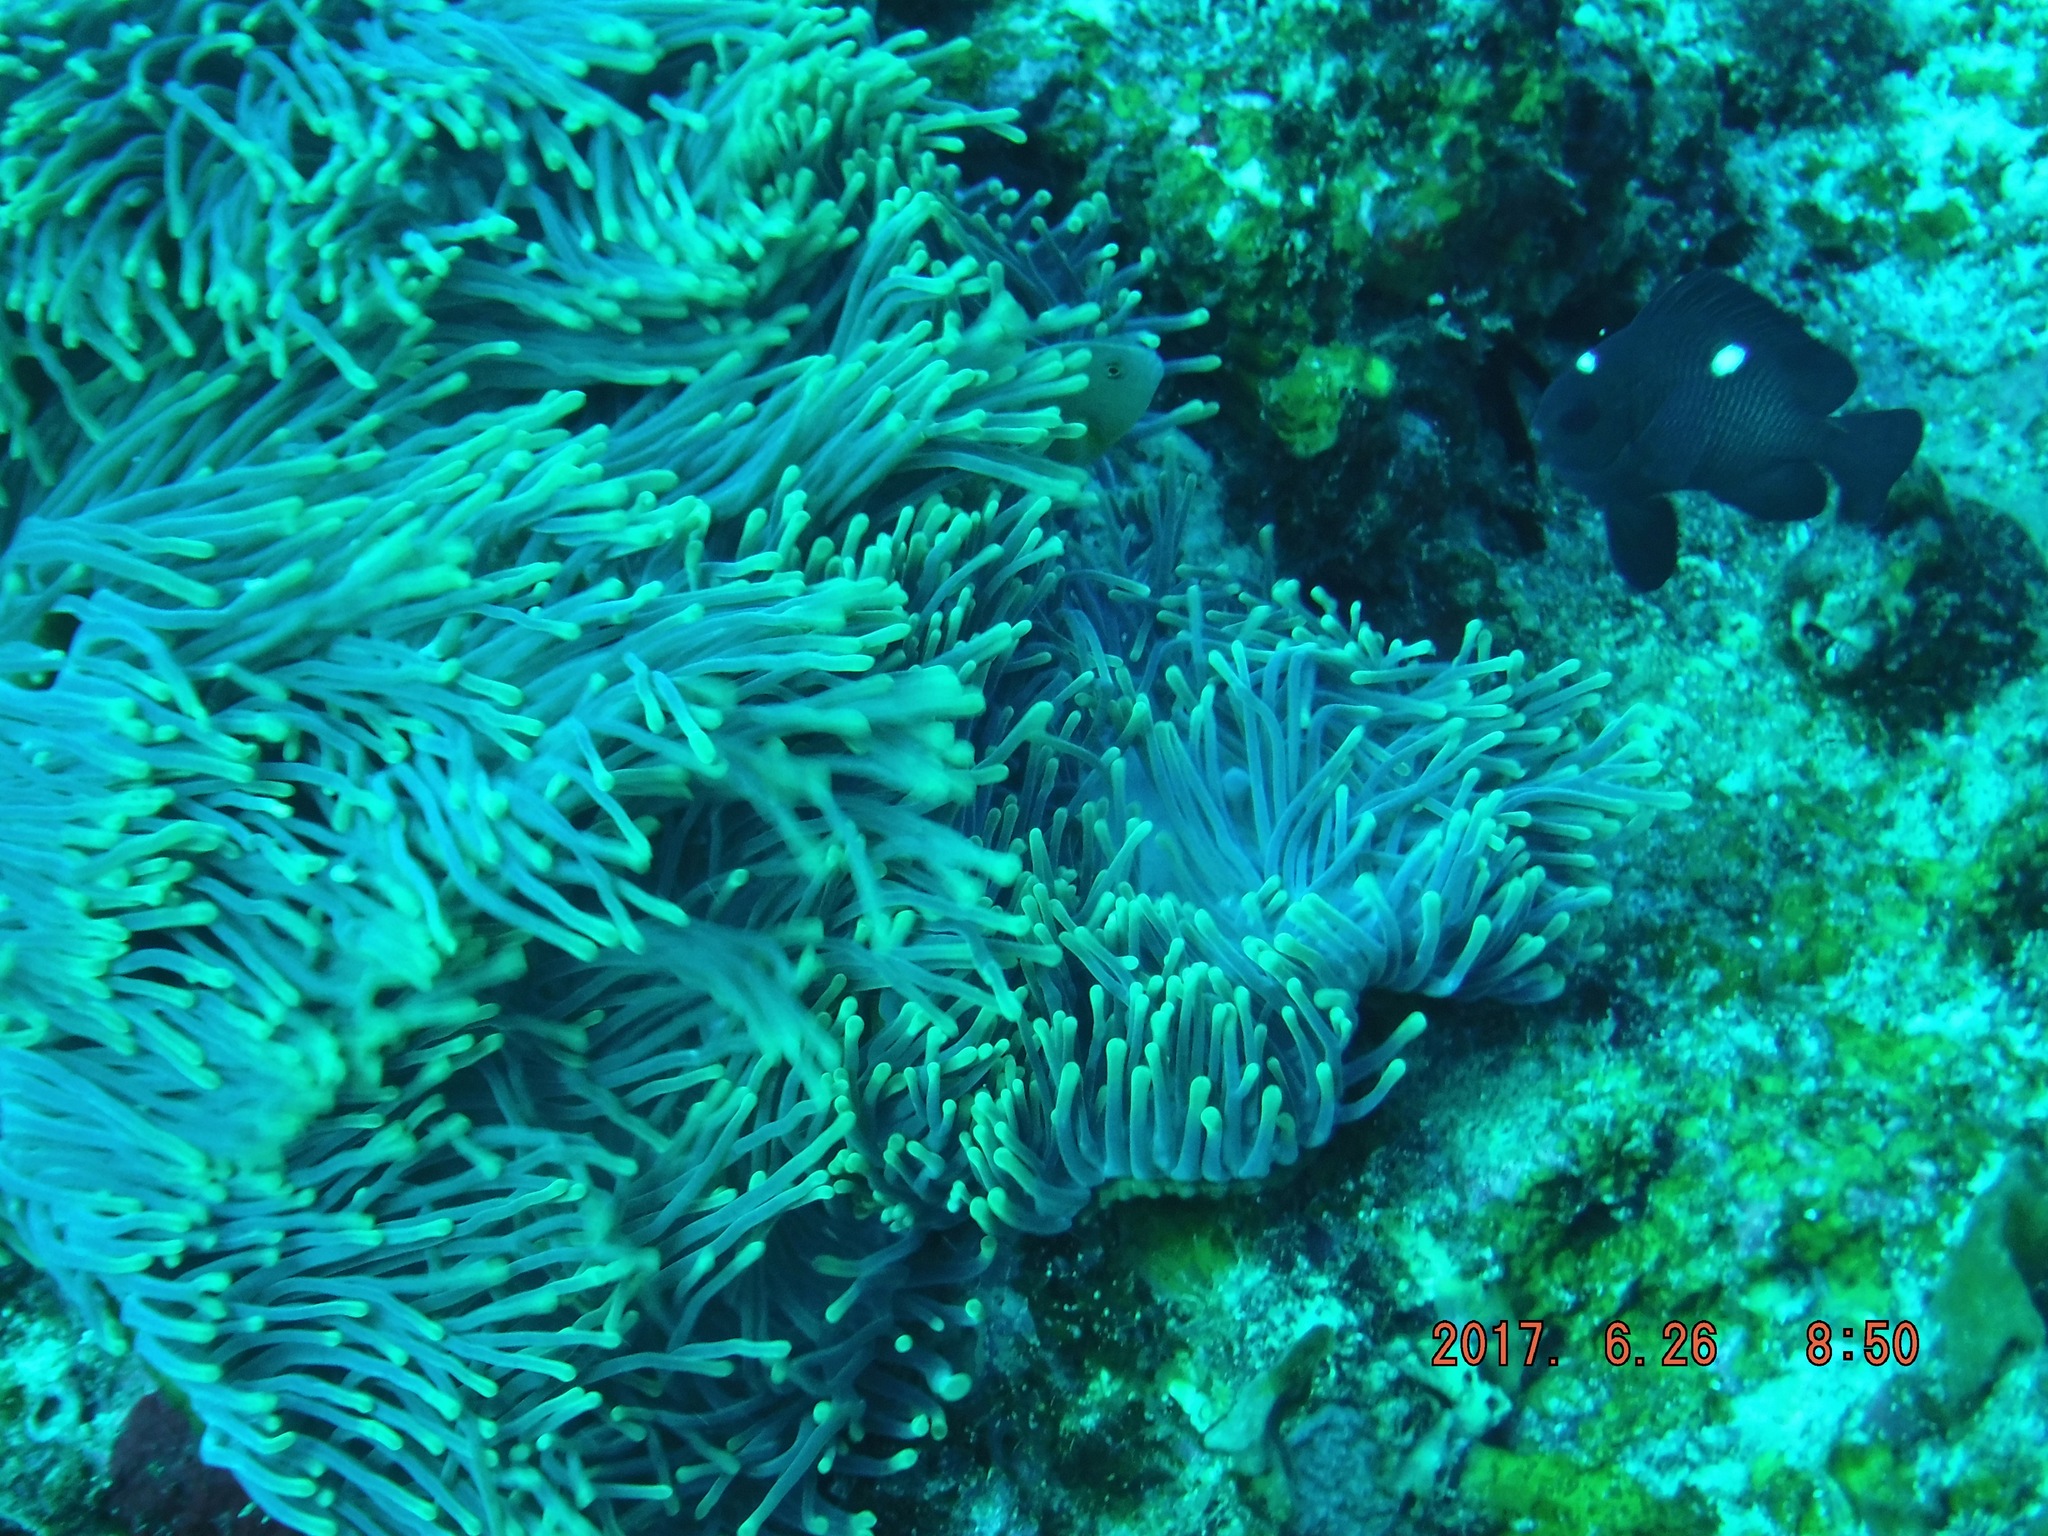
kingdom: Animalia
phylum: Chordata
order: Perciformes
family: Pomacentridae
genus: Dascyllus
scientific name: Dascyllus trimaculatus
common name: Threespot dascyllus
